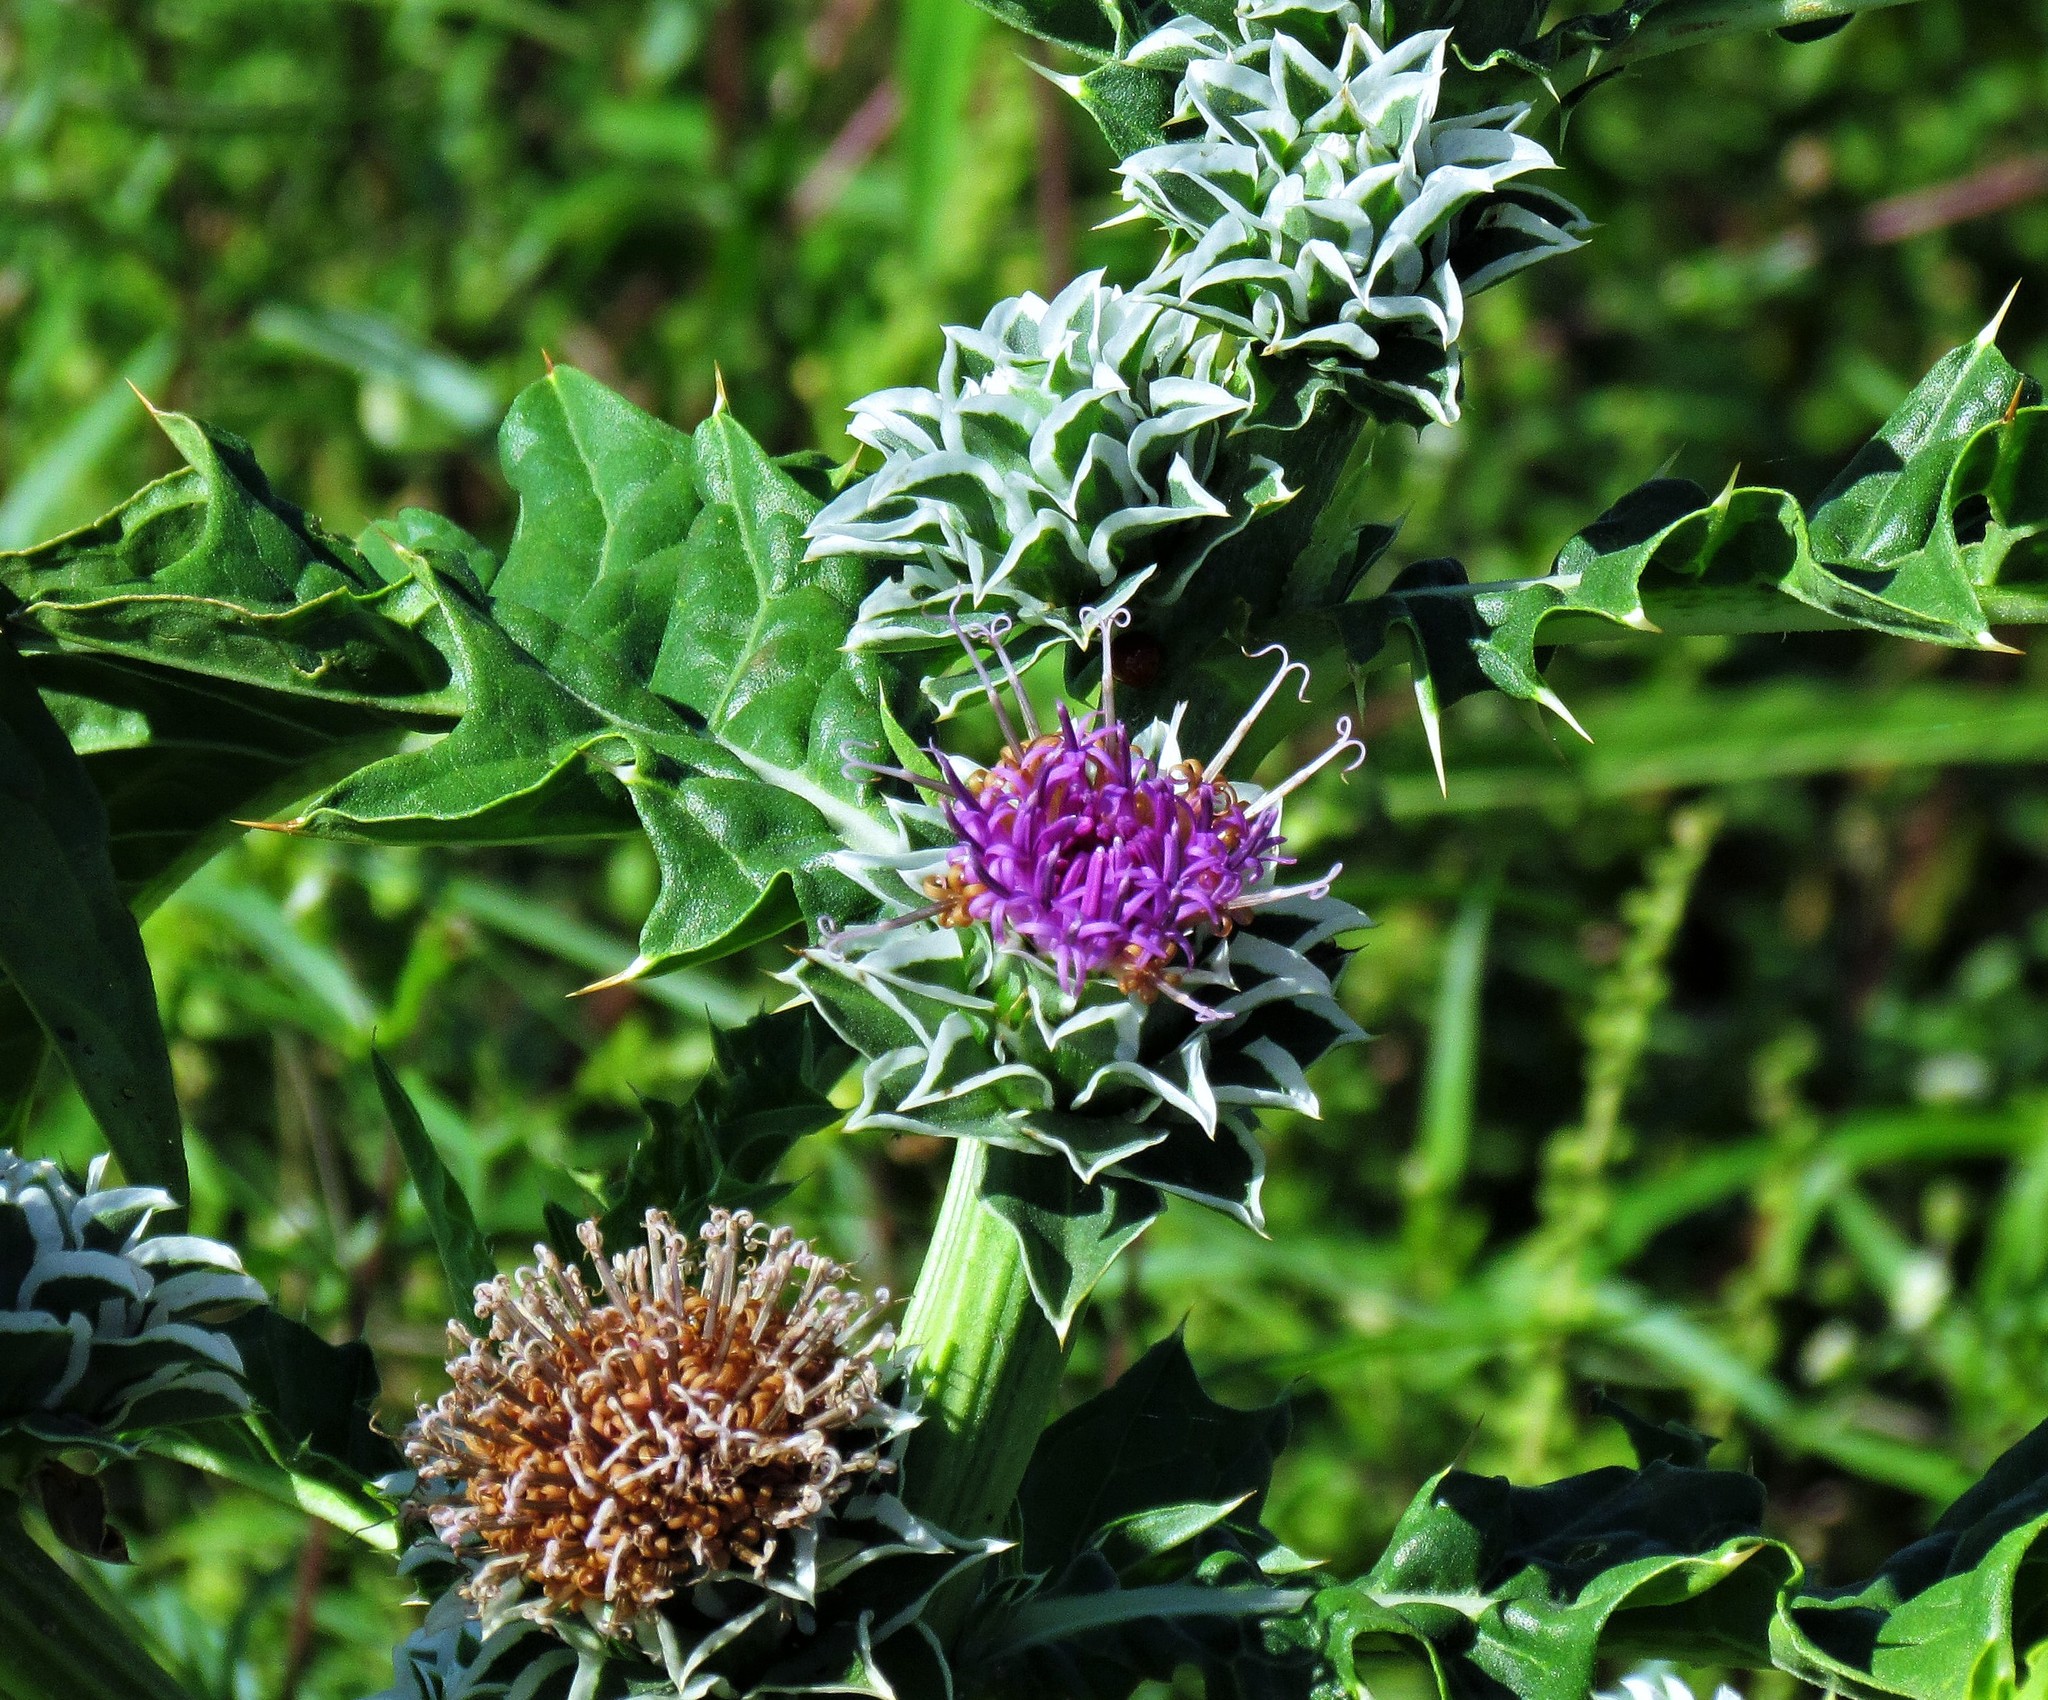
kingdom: Plantae
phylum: Tracheophyta
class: Magnoliopsida
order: Asterales
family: Asteraceae
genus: Pacourina
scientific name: Pacourina edulis
